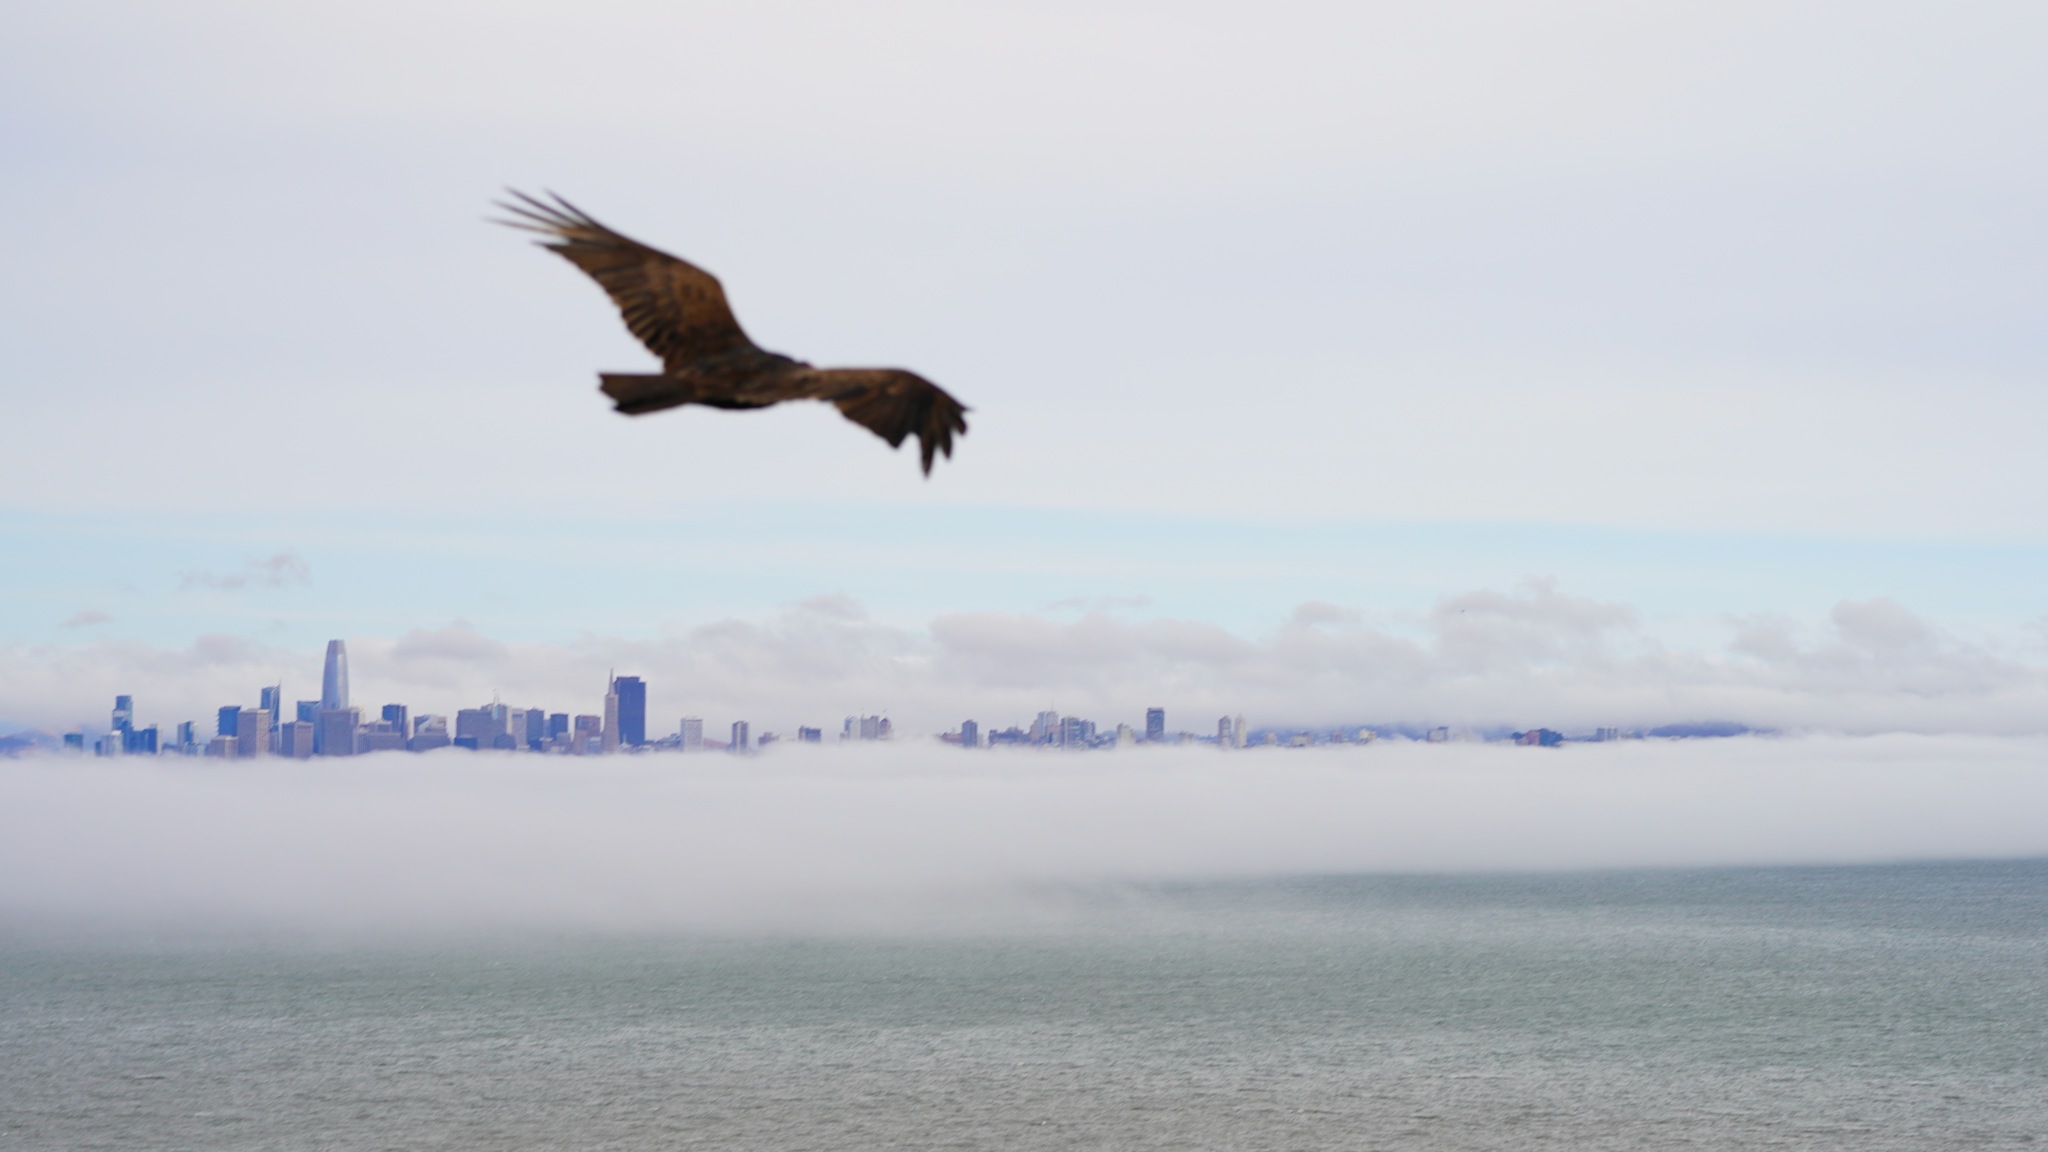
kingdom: Animalia
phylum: Chordata
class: Aves
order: Accipitriformes
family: Cathartidae
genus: Cathartes
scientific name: Cathartes aura
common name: Turkey vulture
